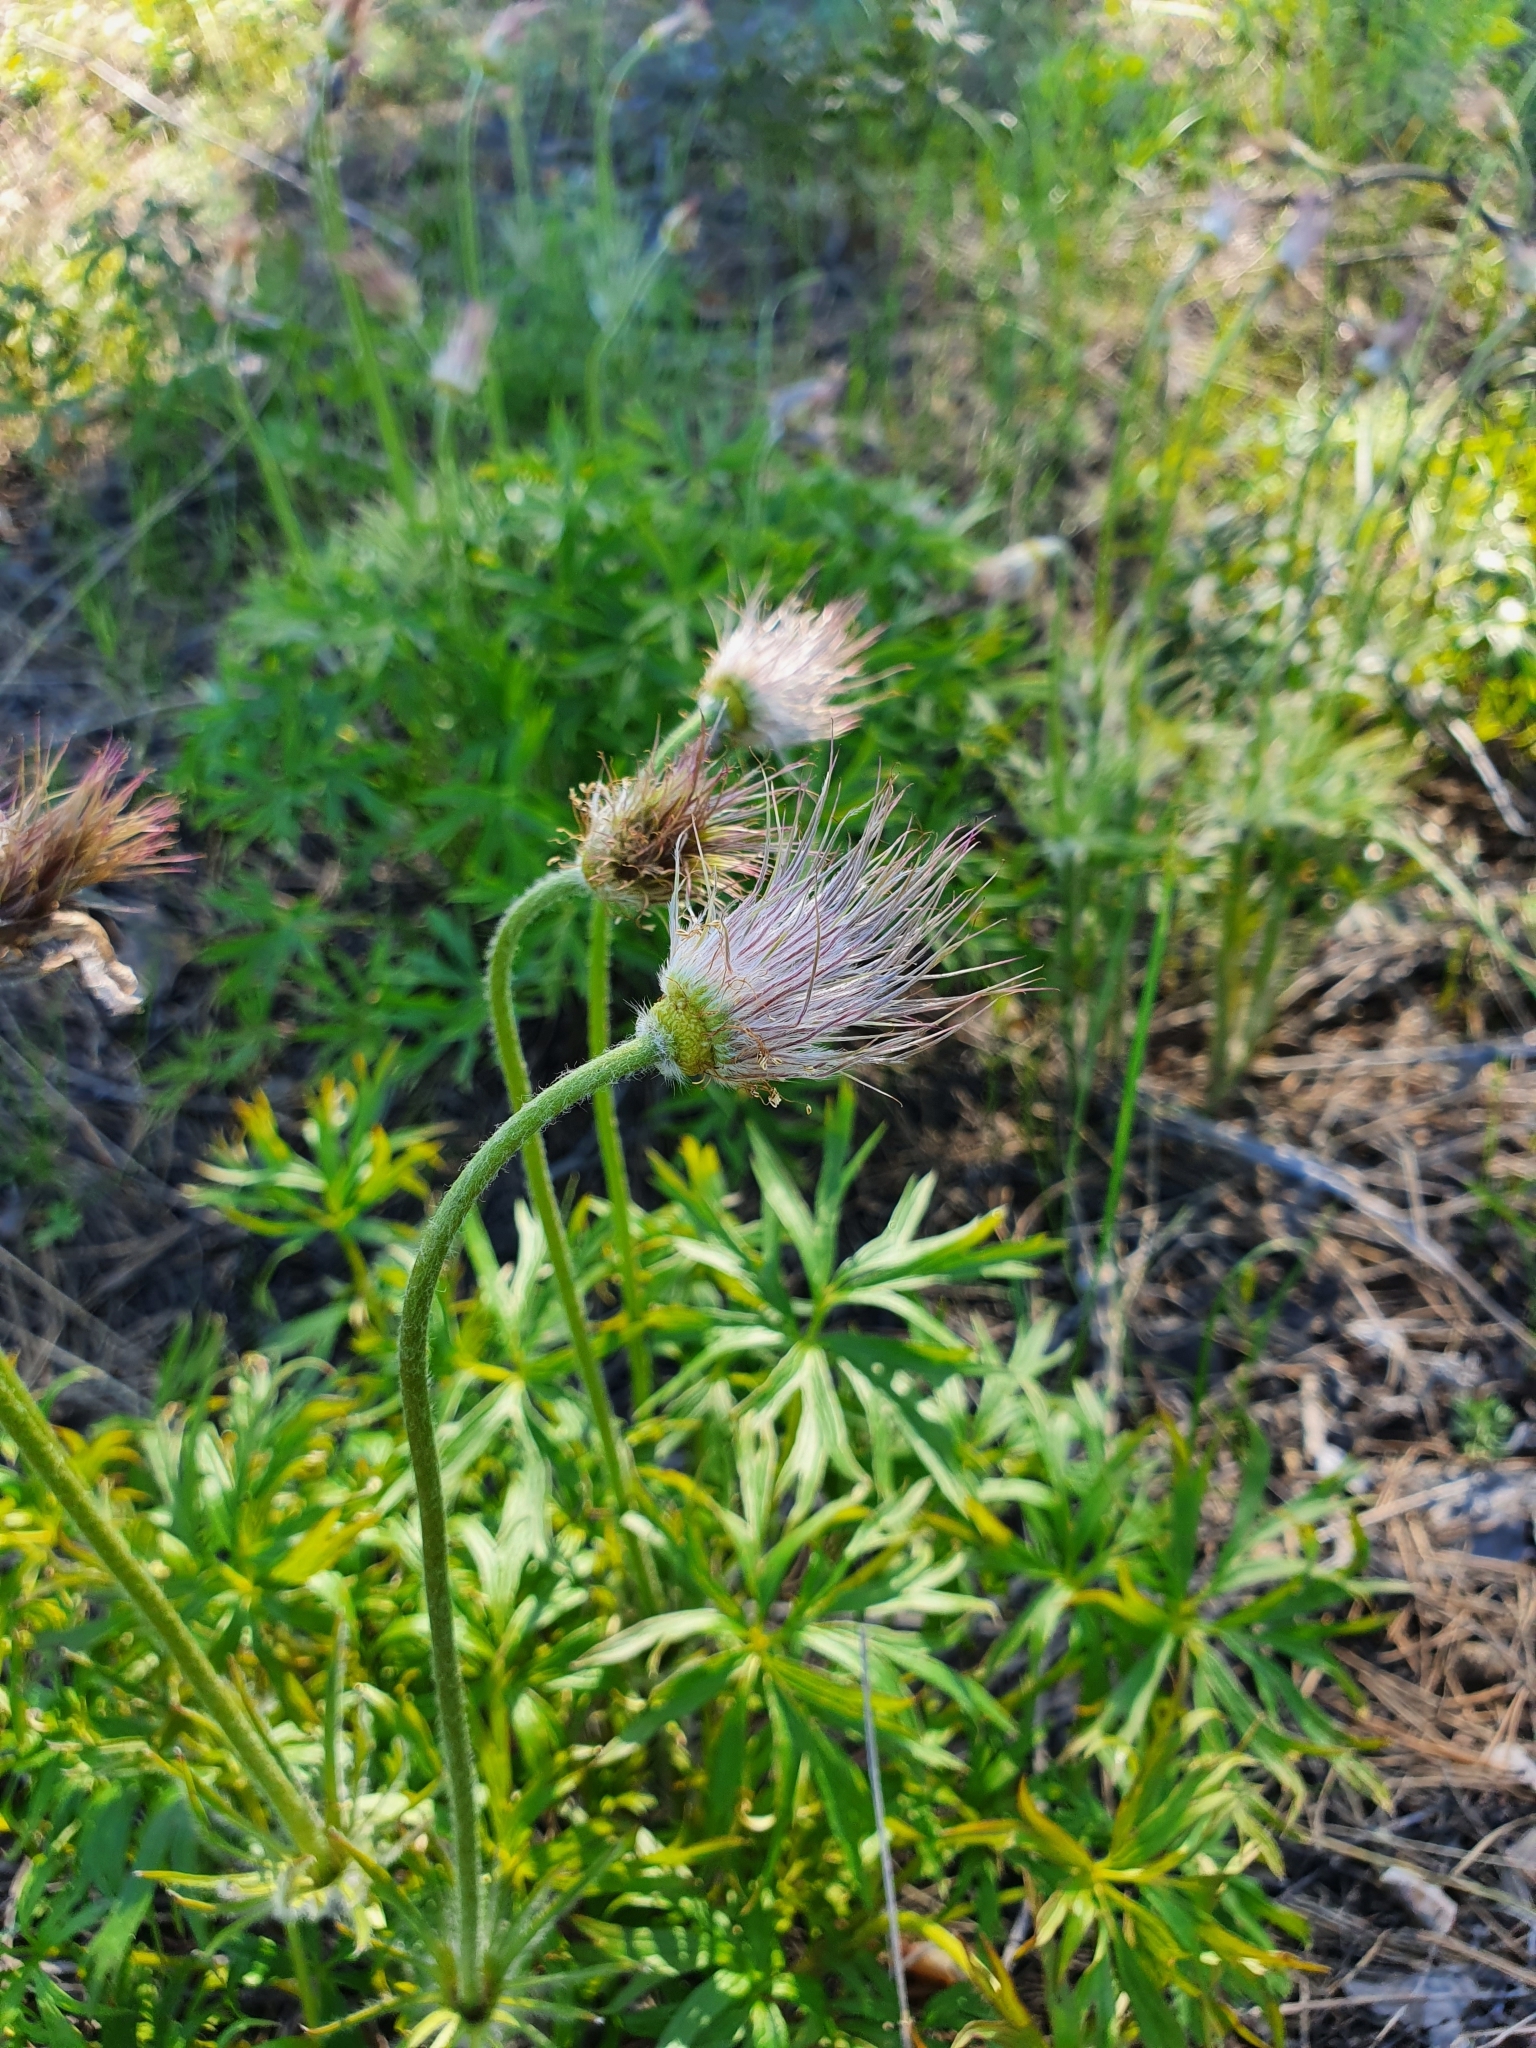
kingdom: Plantae
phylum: Tracheophyta
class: Magnoliopsida
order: Ranunculales
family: Ranunculaceae
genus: Pulsatilla
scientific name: Pulsatilla patens
